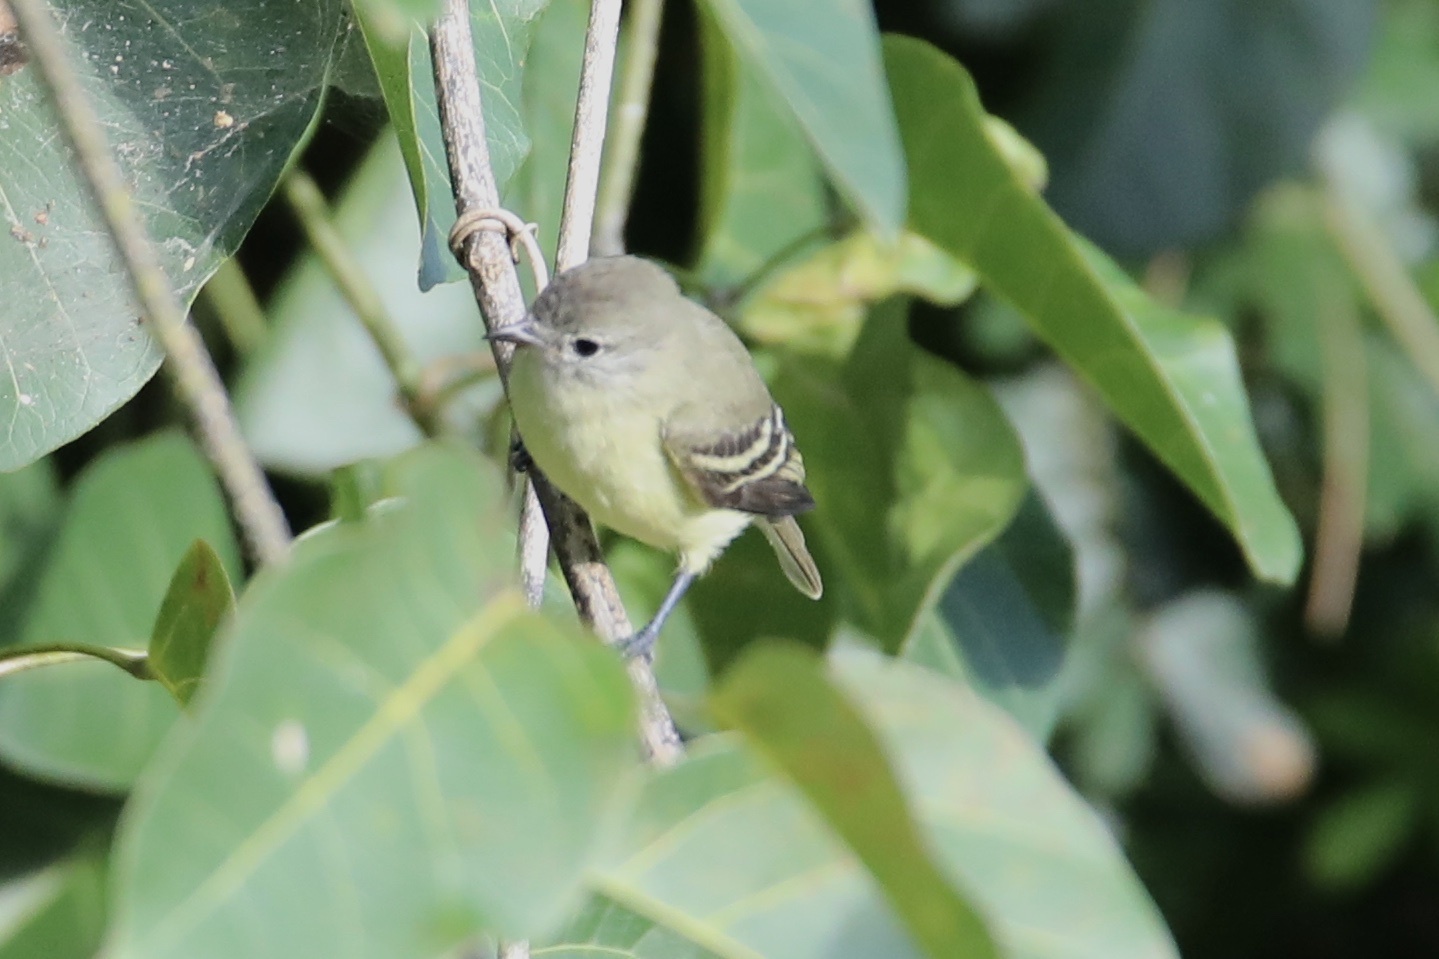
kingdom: Animalia
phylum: Chordata
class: Aves
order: Passeriformes
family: Tyrannidae
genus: Camptostoma
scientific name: Camptostoma obsoletum
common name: Southern beardless-tyrannulet
